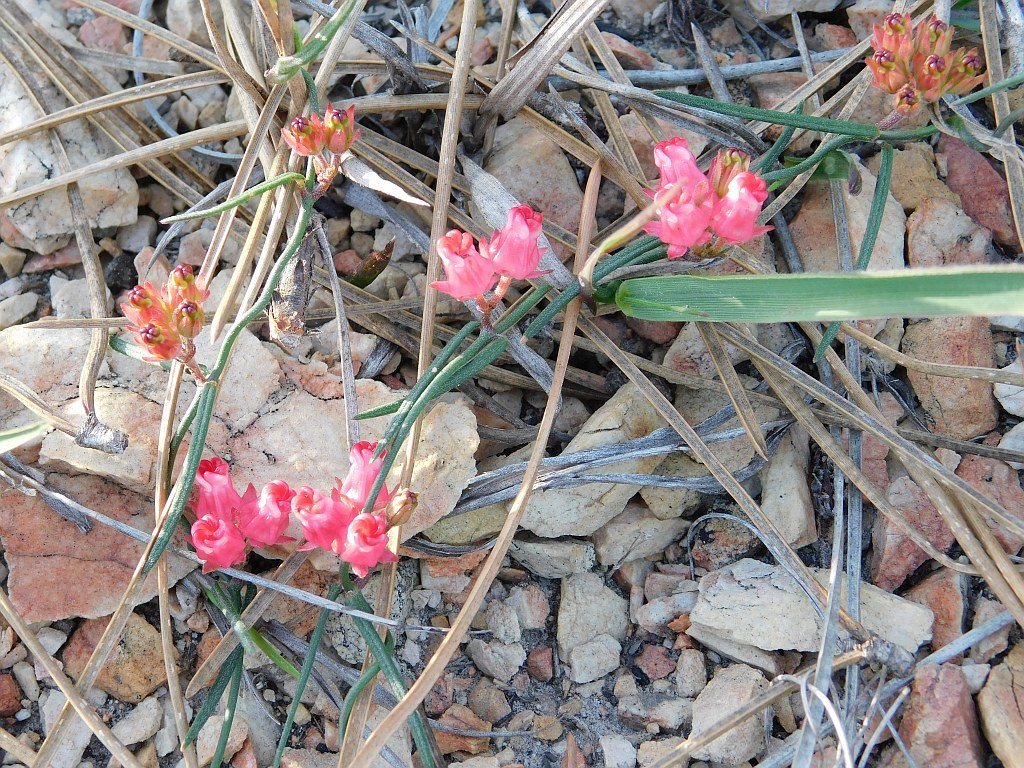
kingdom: Plantae
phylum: Tracheophyta
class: Magnoliopsida
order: Gentianales
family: Apocynaceae
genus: Microloma
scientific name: Microloma tenuifolium
